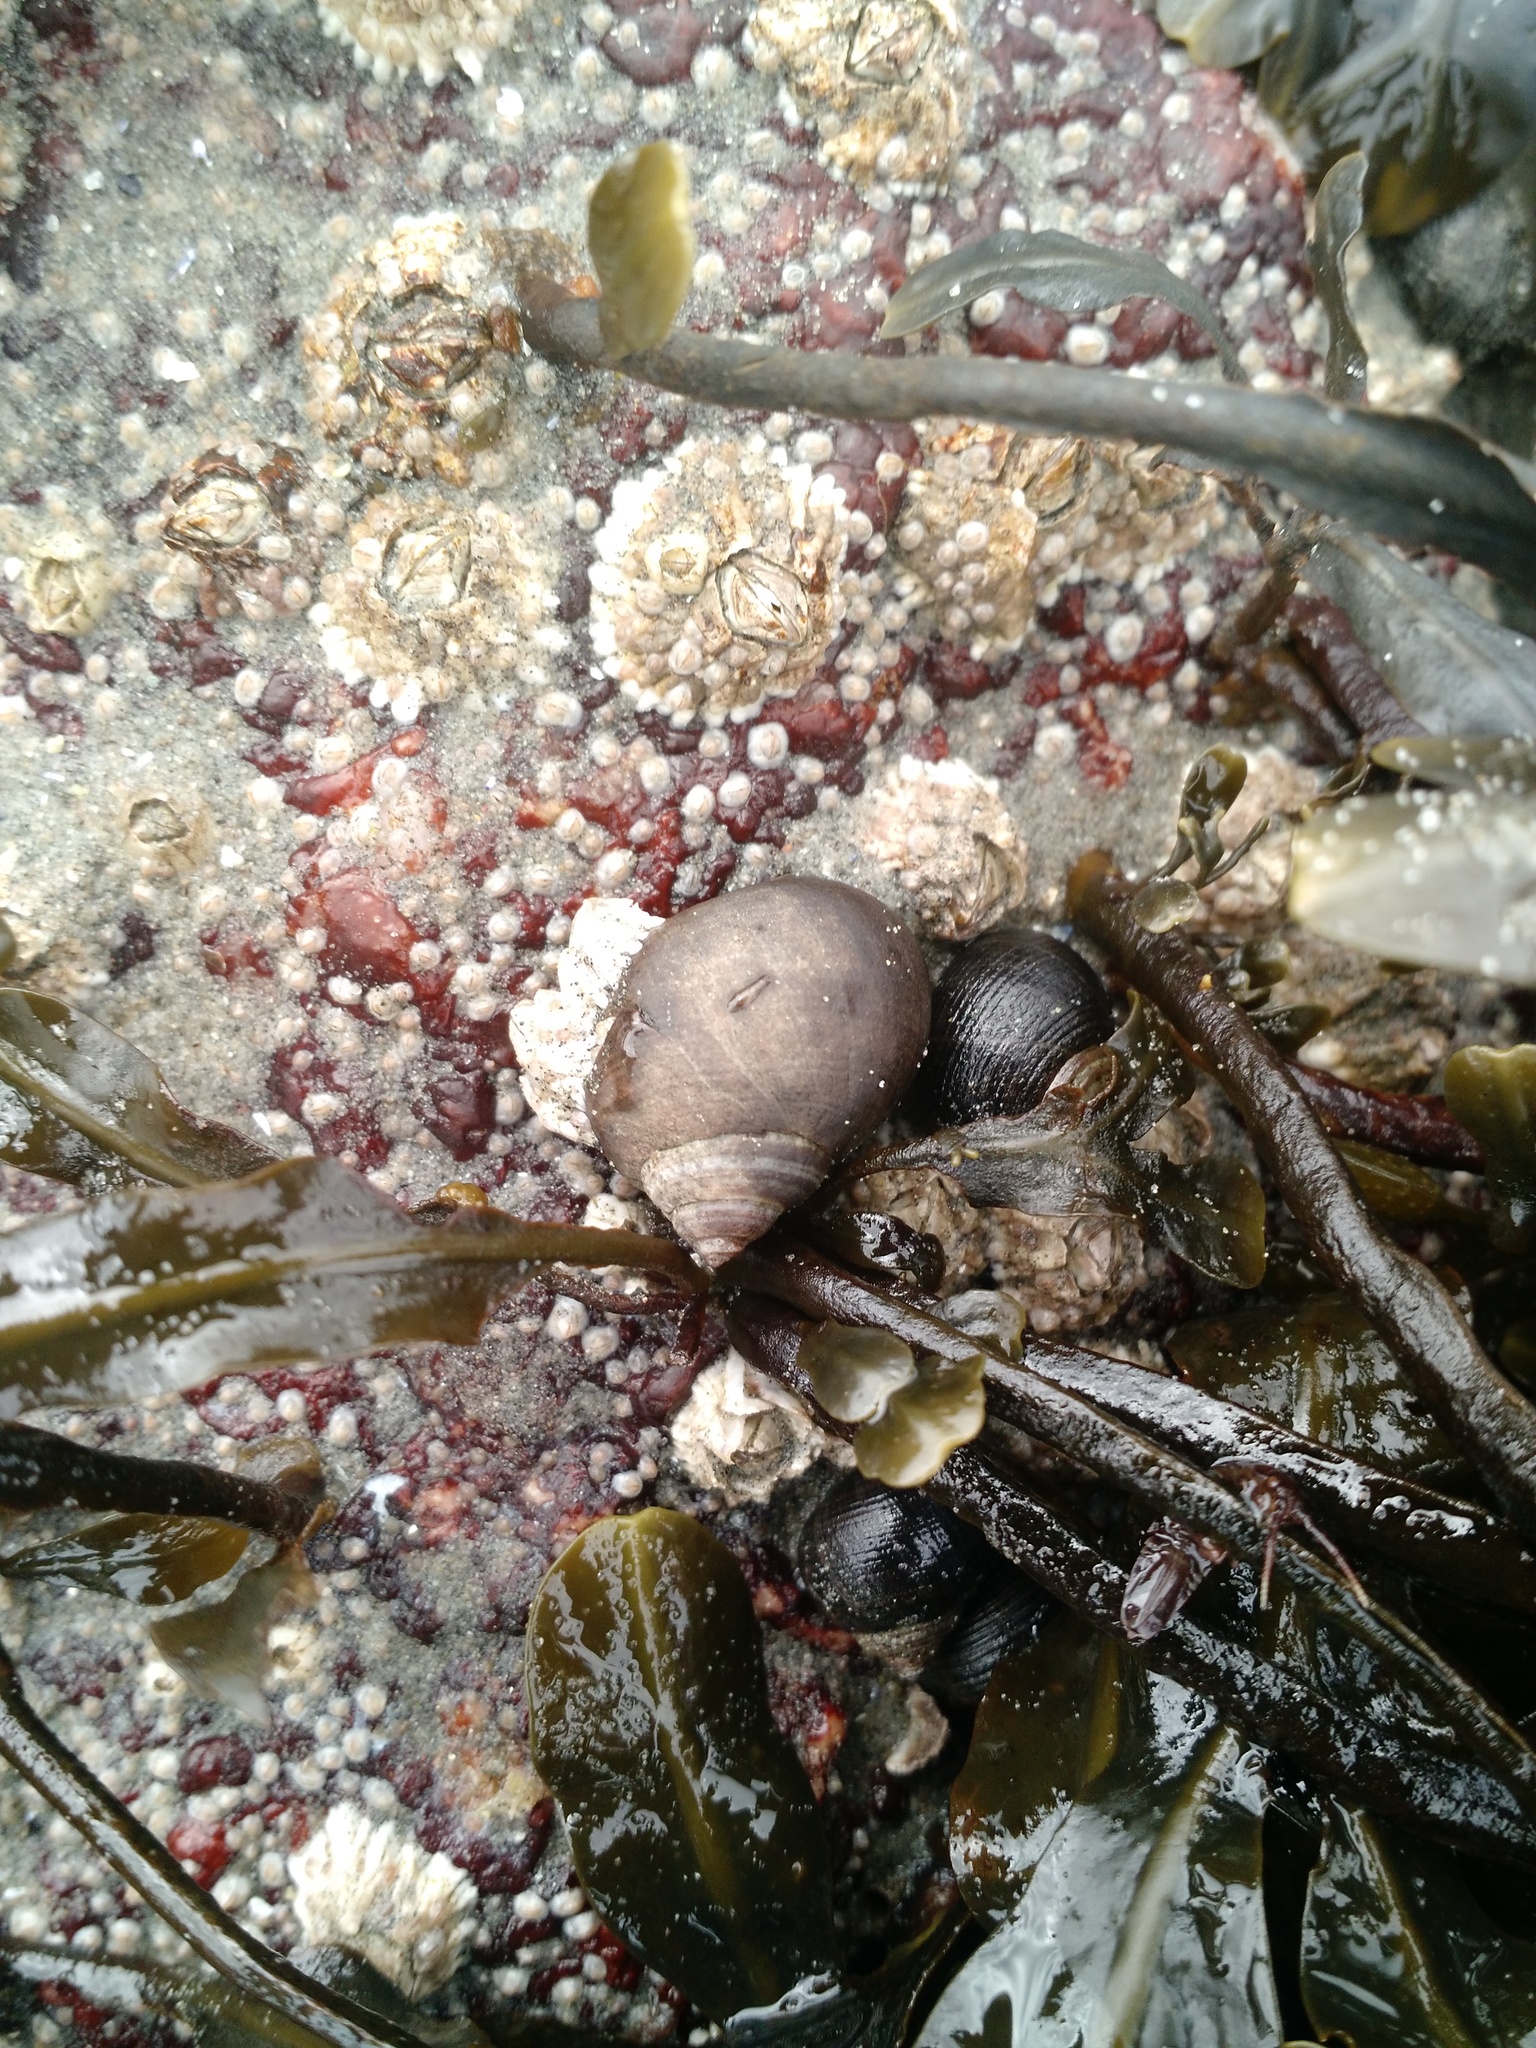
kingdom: Animalia
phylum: Mollusca
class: Gastropoda
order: Littorinimorpha
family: Littorinidae
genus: Littorina
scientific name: Littorina littorea
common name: Common periwinkle
